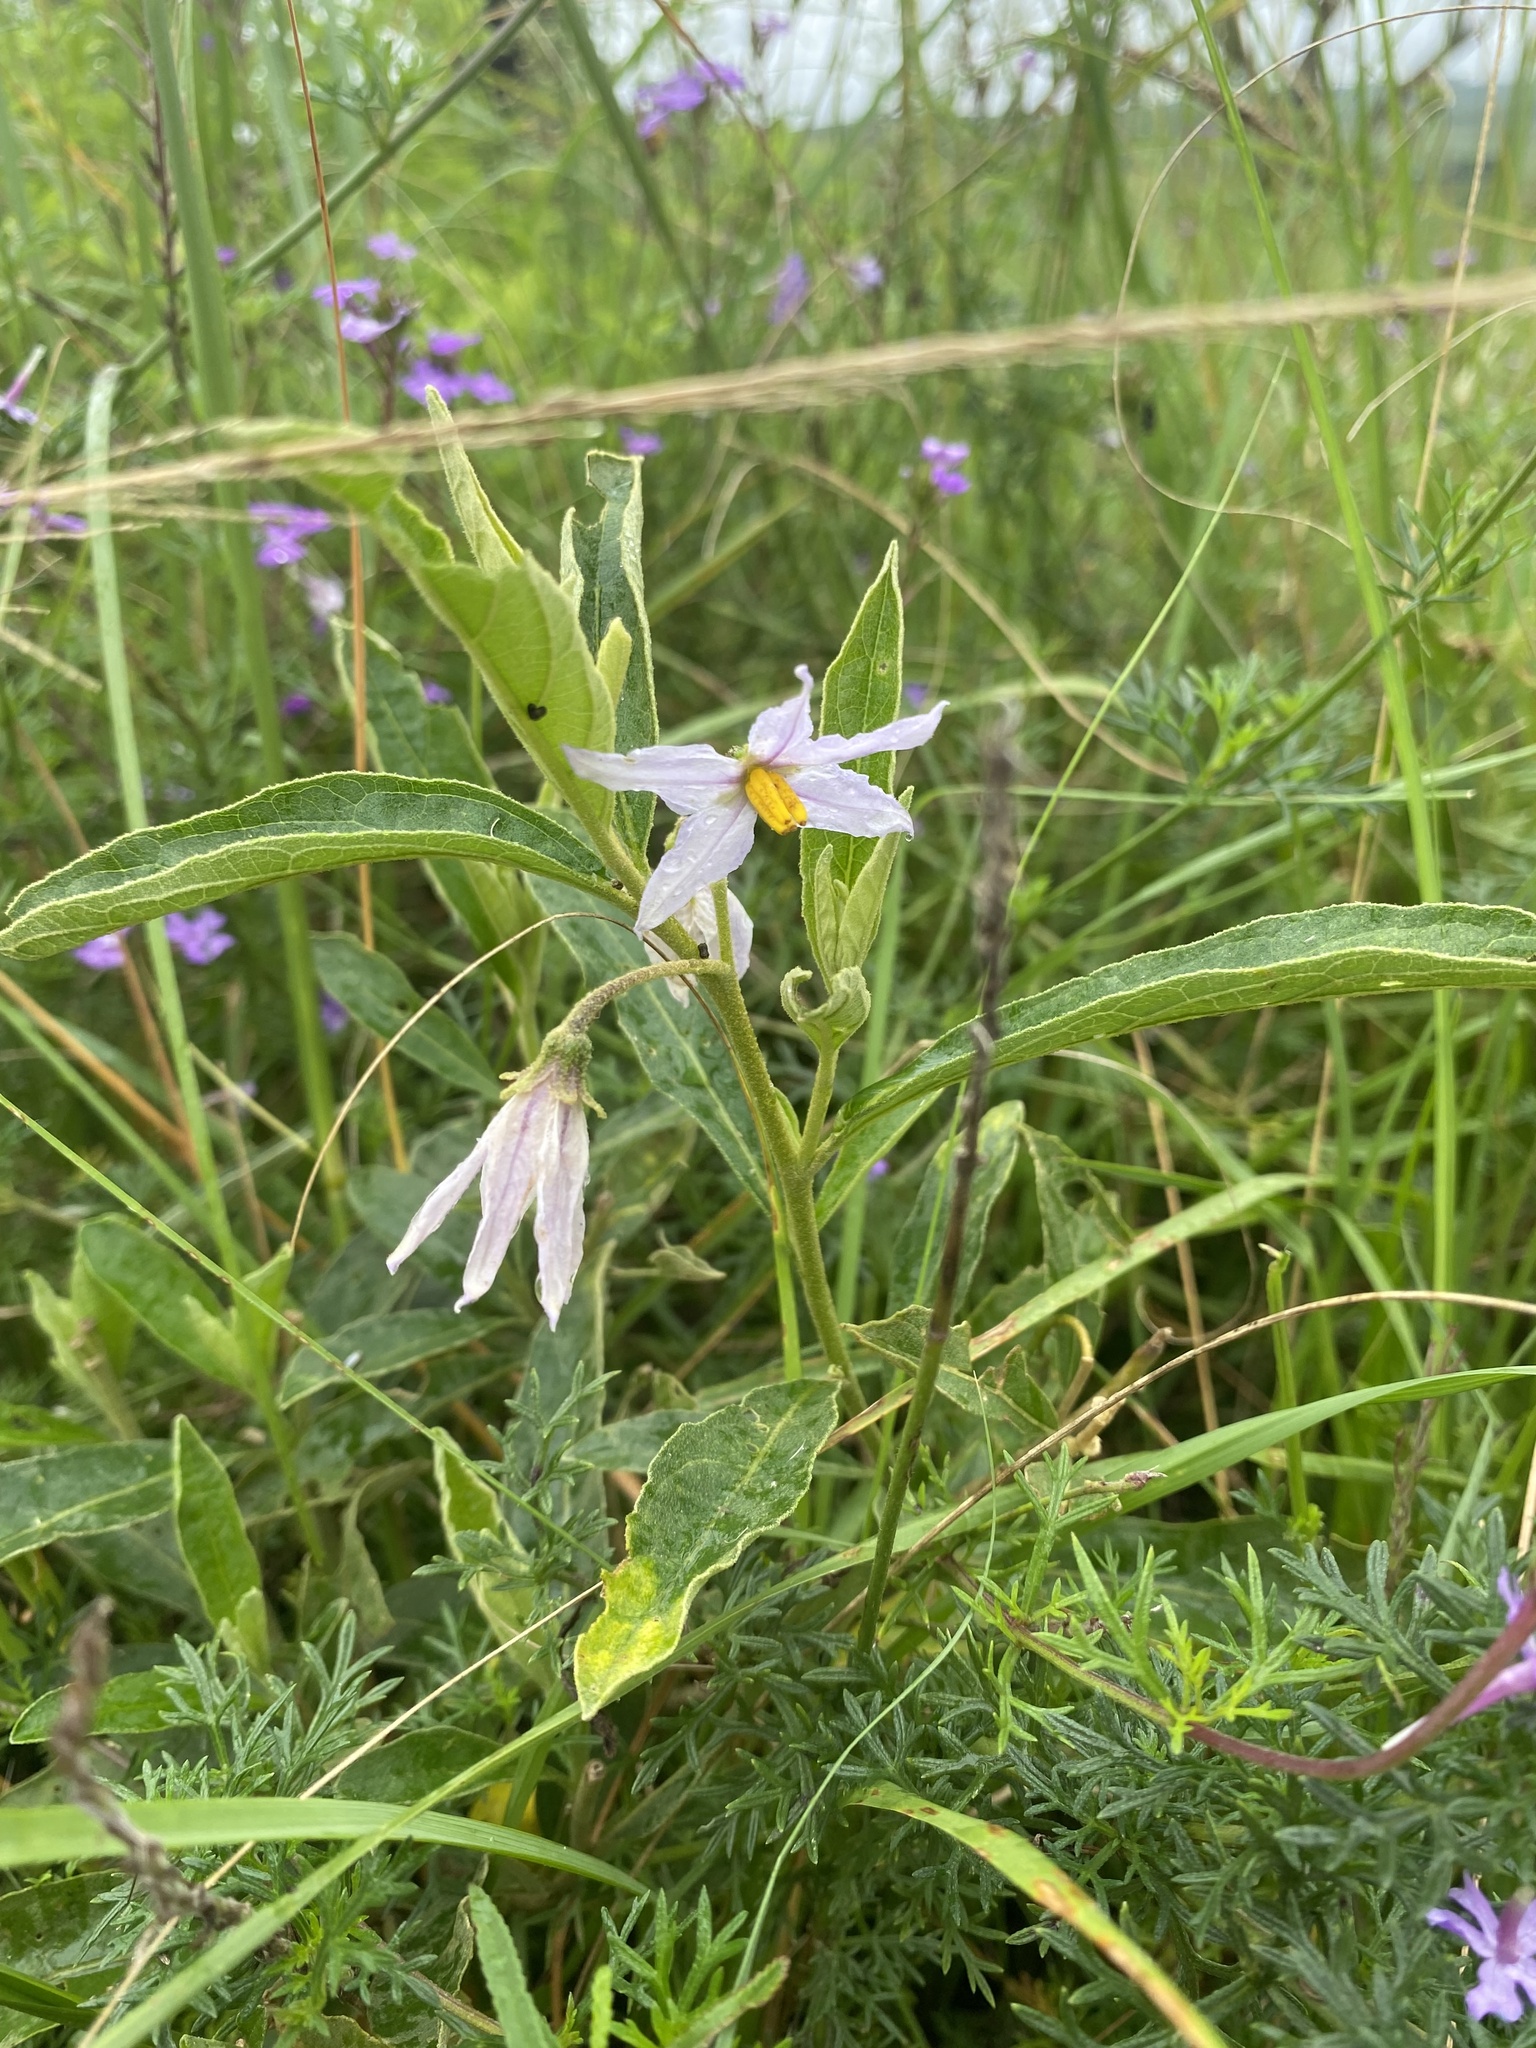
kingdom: Plantae
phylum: Tracheophyta
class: Magnoliopsida
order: Solanales
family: Solanaceae
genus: Solanum
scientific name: Solanum campylacanthum
